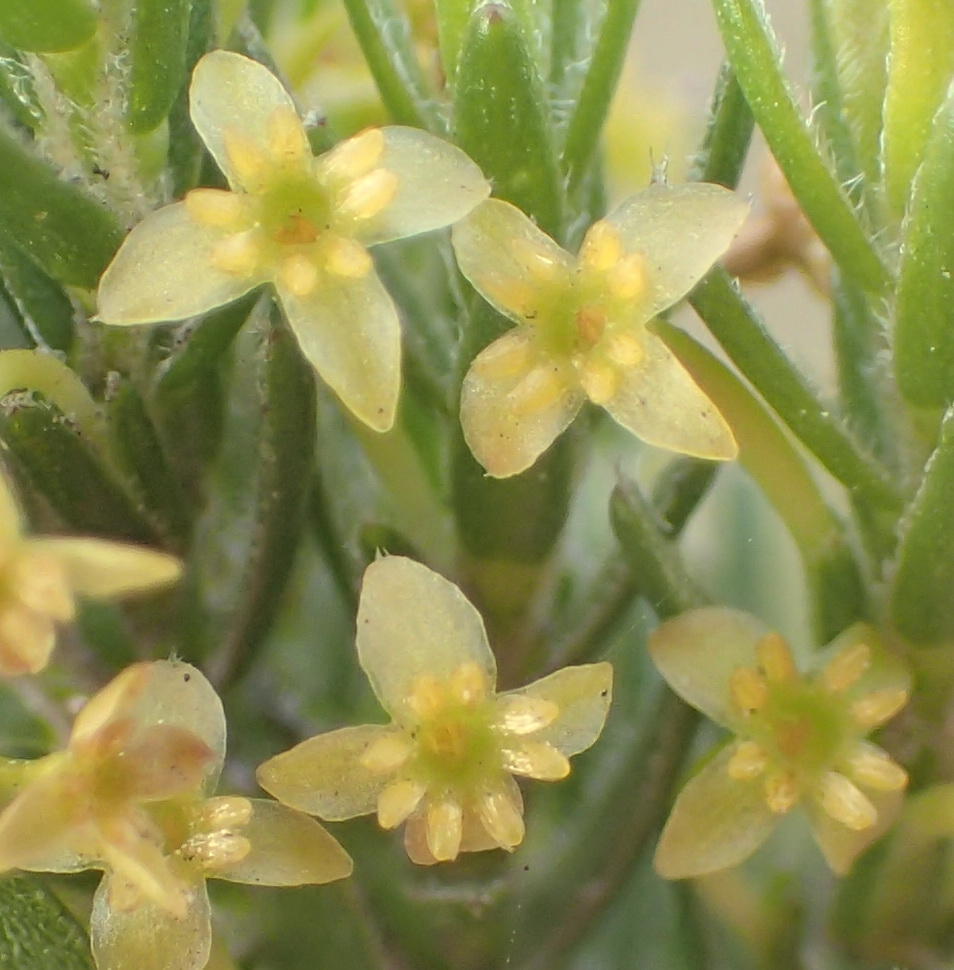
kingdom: Plantae
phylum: Tracheophyta
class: Magnoliopsida
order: Malvales
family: Thymelaeaceae
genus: Struthiola
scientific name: Struthiola parviflora
